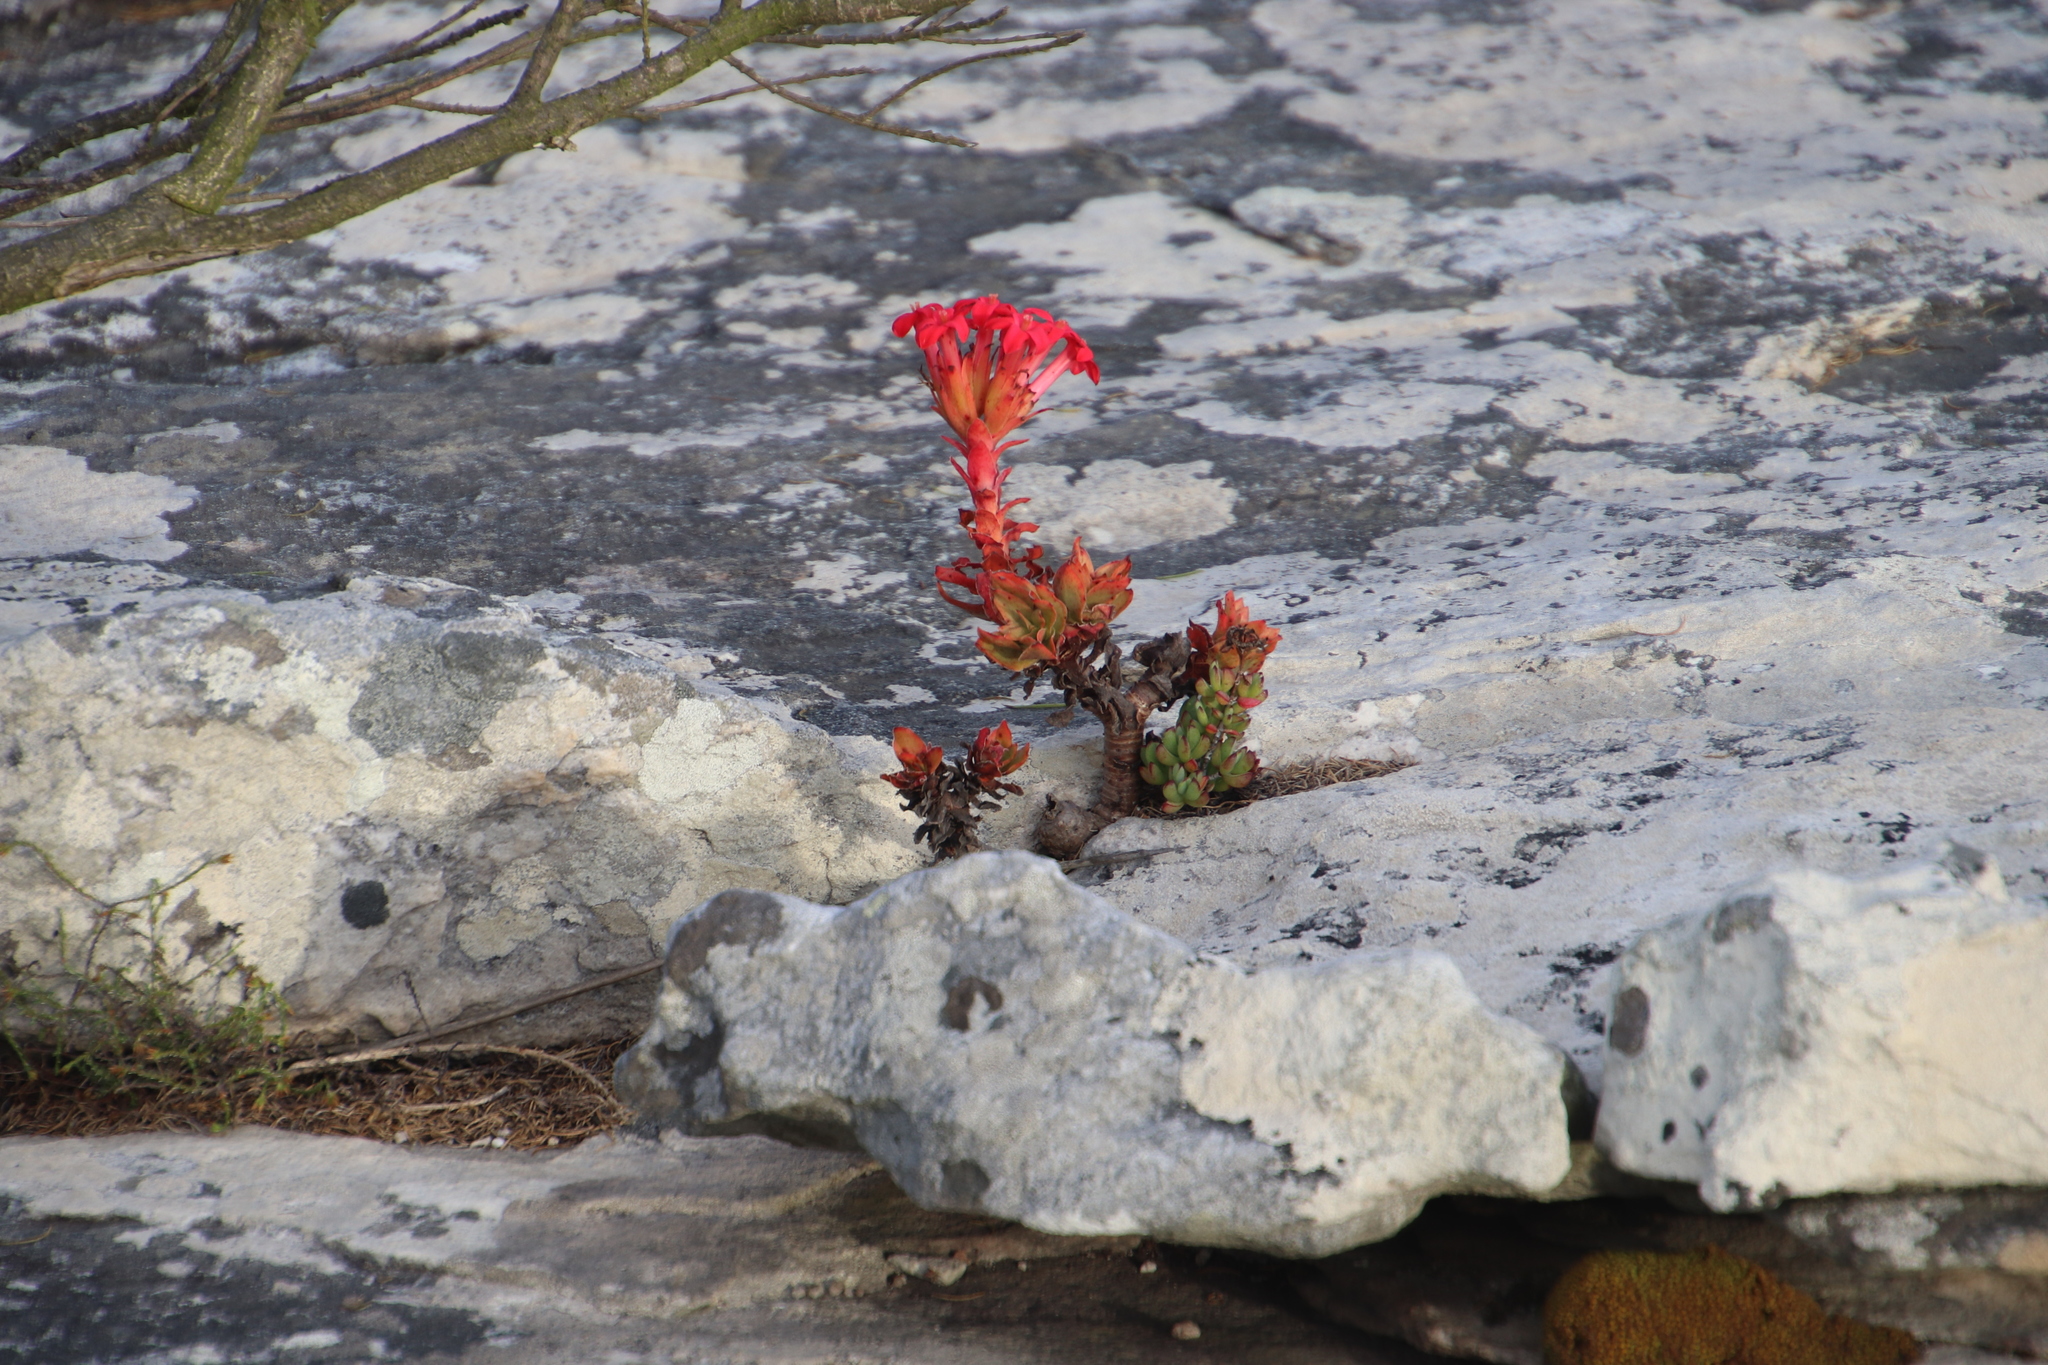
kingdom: Plantae
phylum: Tracheophyta
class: Magnoliopsida
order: Saxifragales
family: Crassulaceae
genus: Crassula
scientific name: Crassula coccinea
